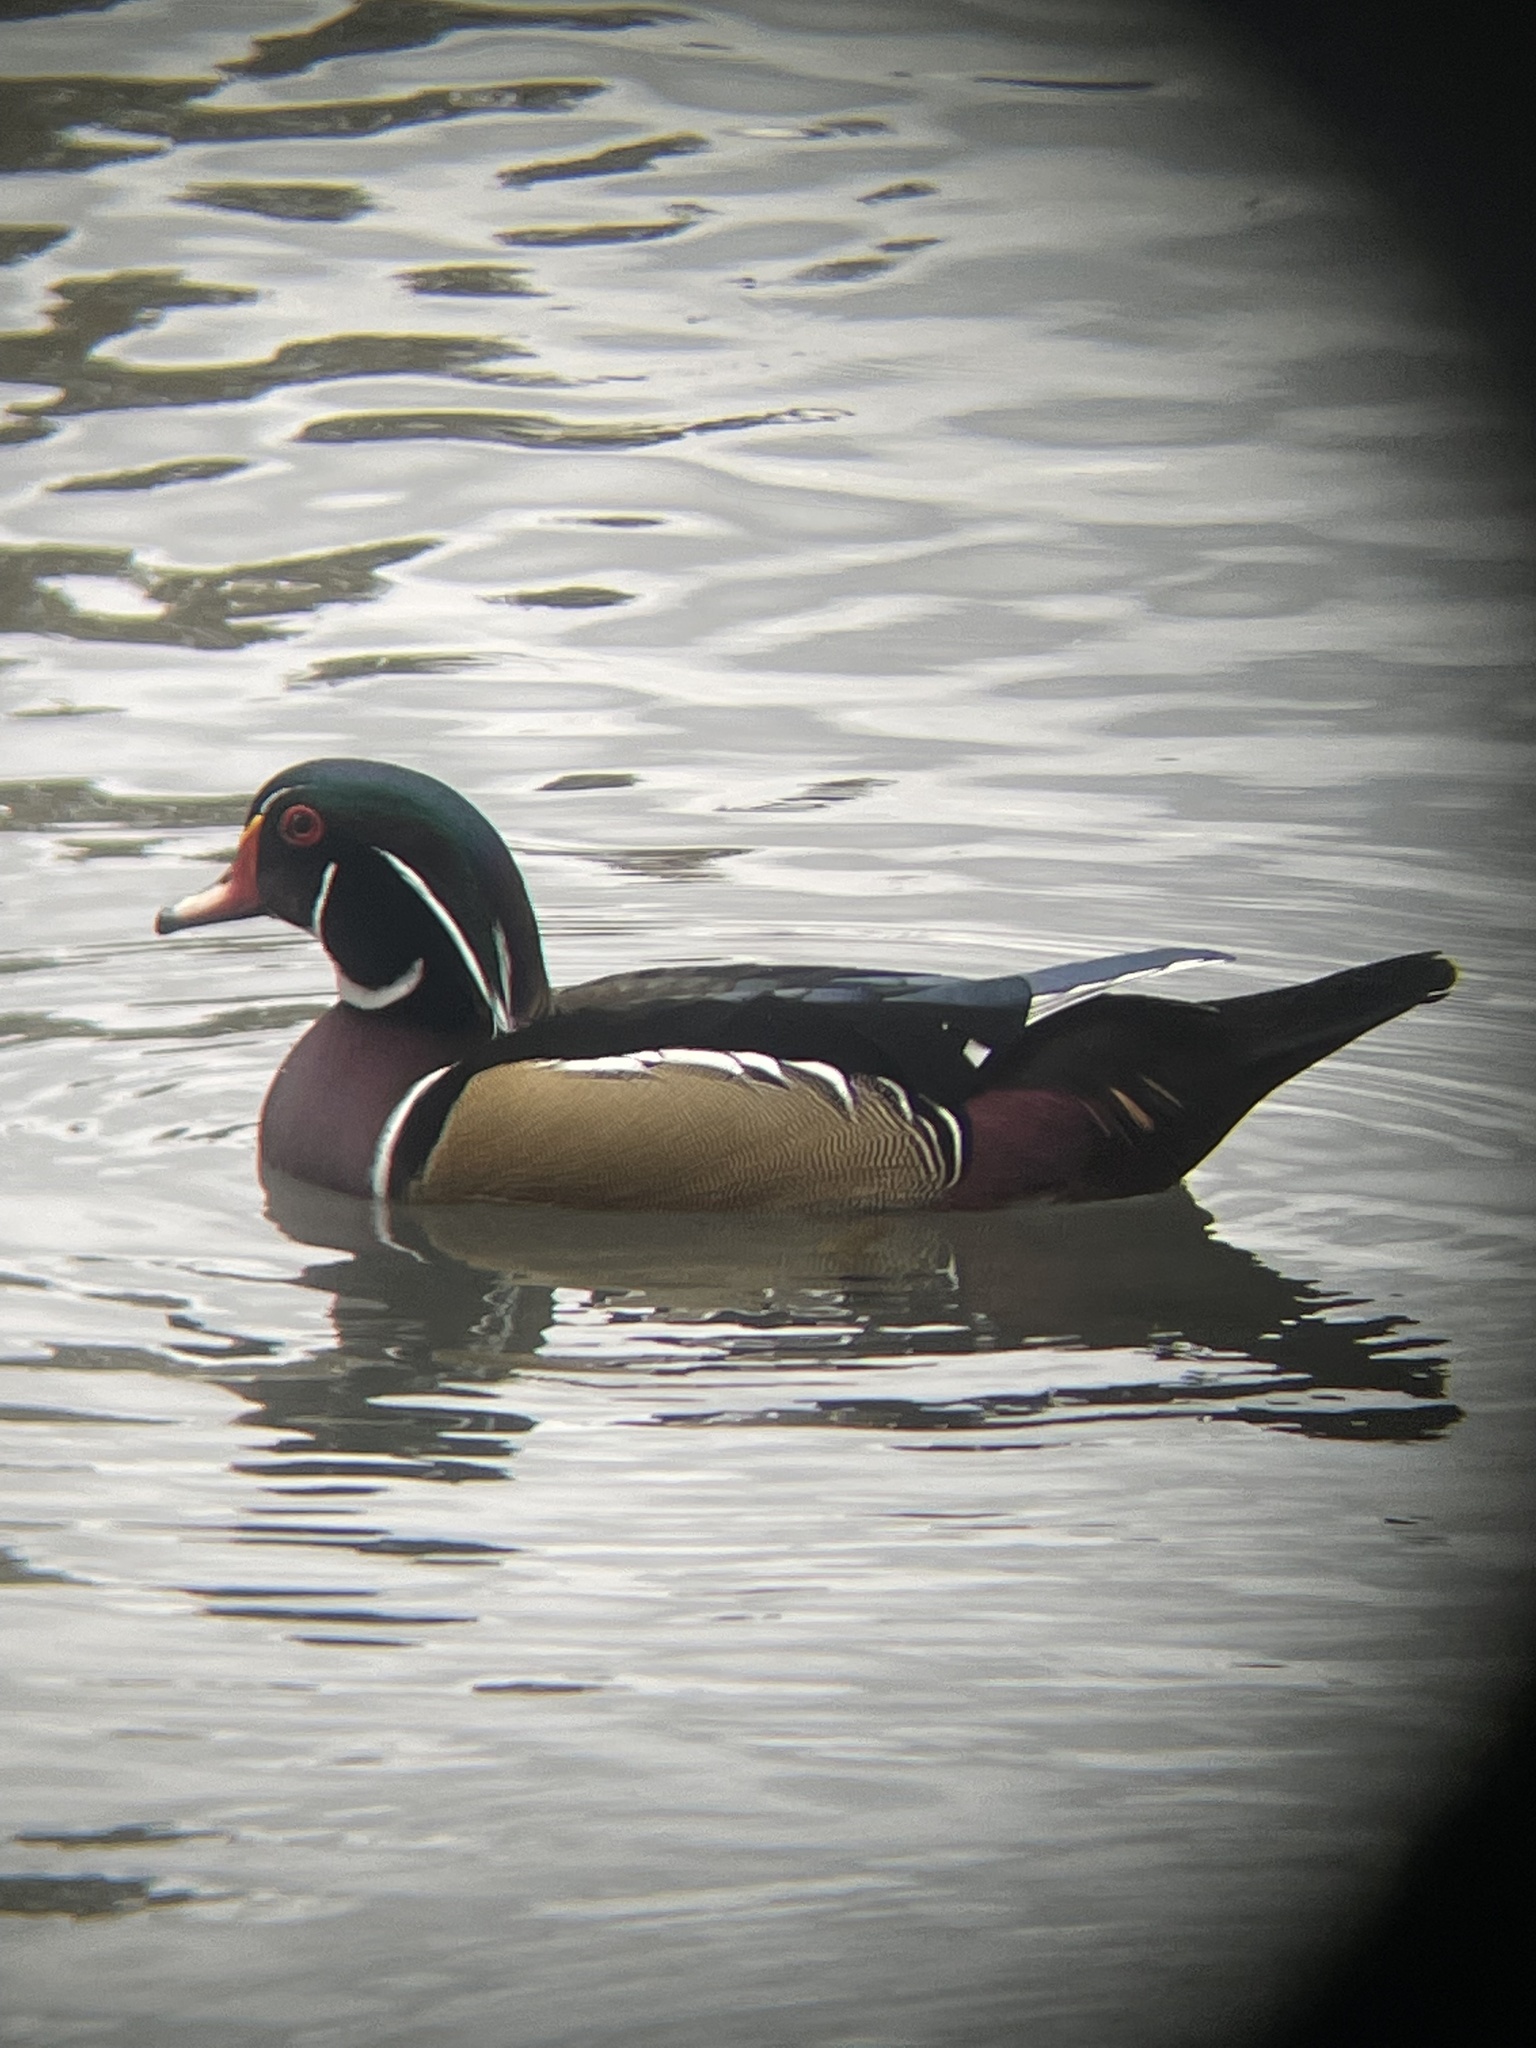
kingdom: Animalia
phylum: Chordata
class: Aves
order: Anseriformes
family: Anatidae
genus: Aix
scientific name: Aix sponsa
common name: Wood duck
